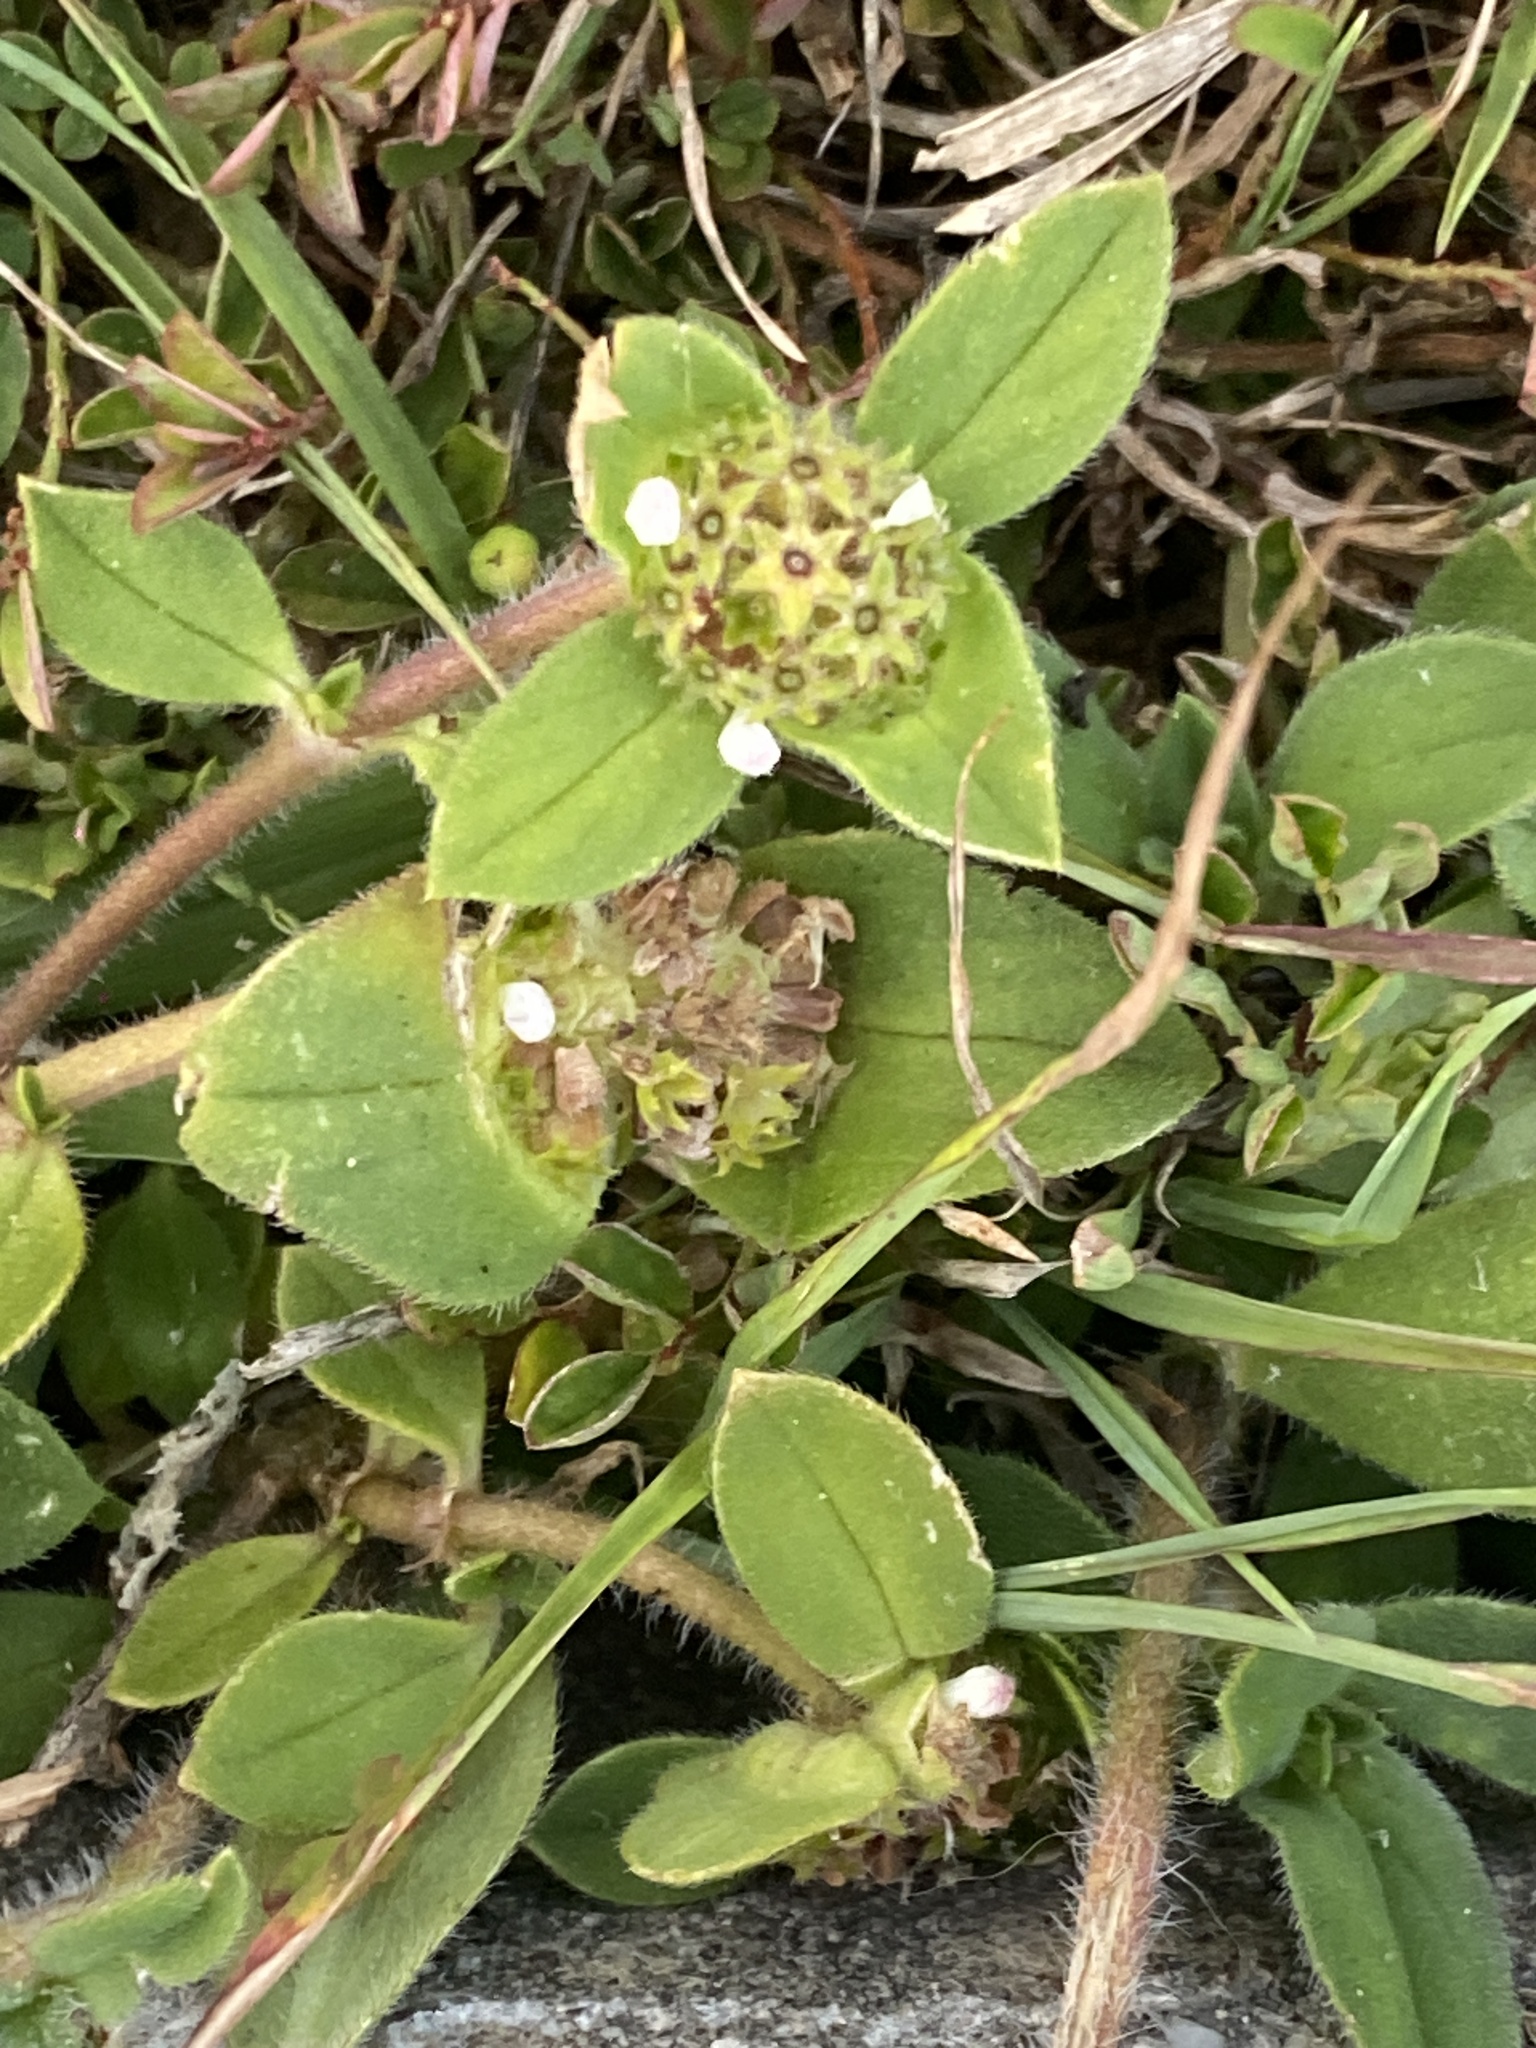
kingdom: Plantae
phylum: Tracheophyta
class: Magnoliopsida
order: Gentianales
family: Rubiaceae
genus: Richardia
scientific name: Richardia brasiliensis
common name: Tropical mexican clover
